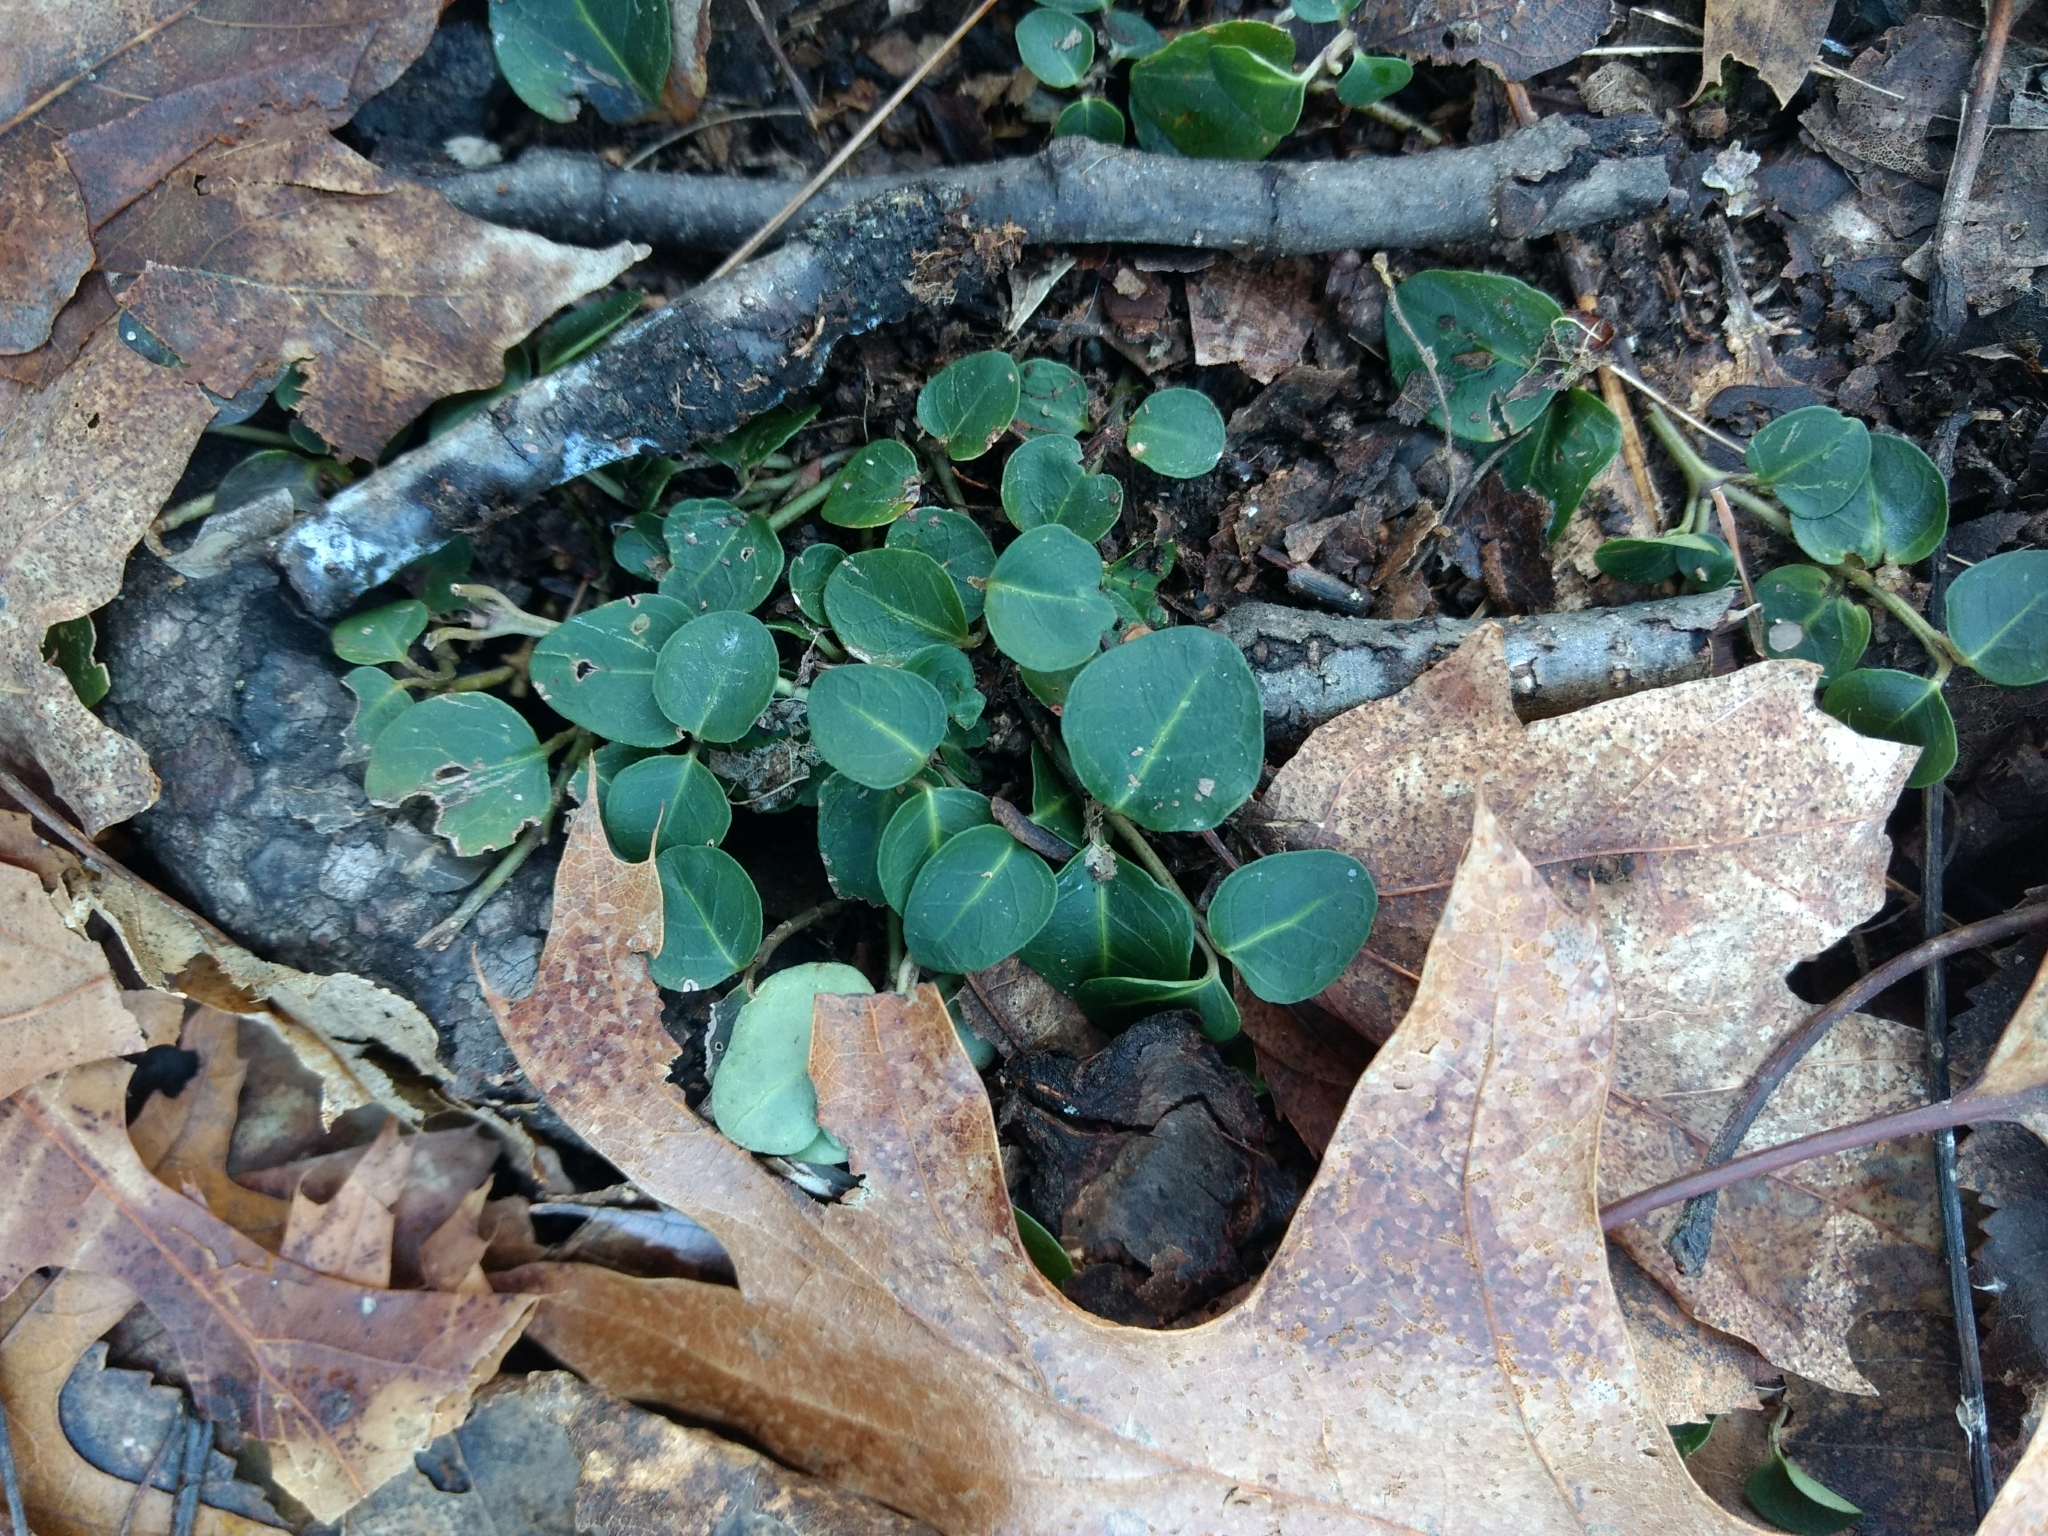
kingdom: Plantae
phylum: Tracheophyta
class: Magnoliopsida
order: Gentianales
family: Rubiaceae
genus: Mitchella
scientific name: Mitchella repens
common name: Partridge-berry
